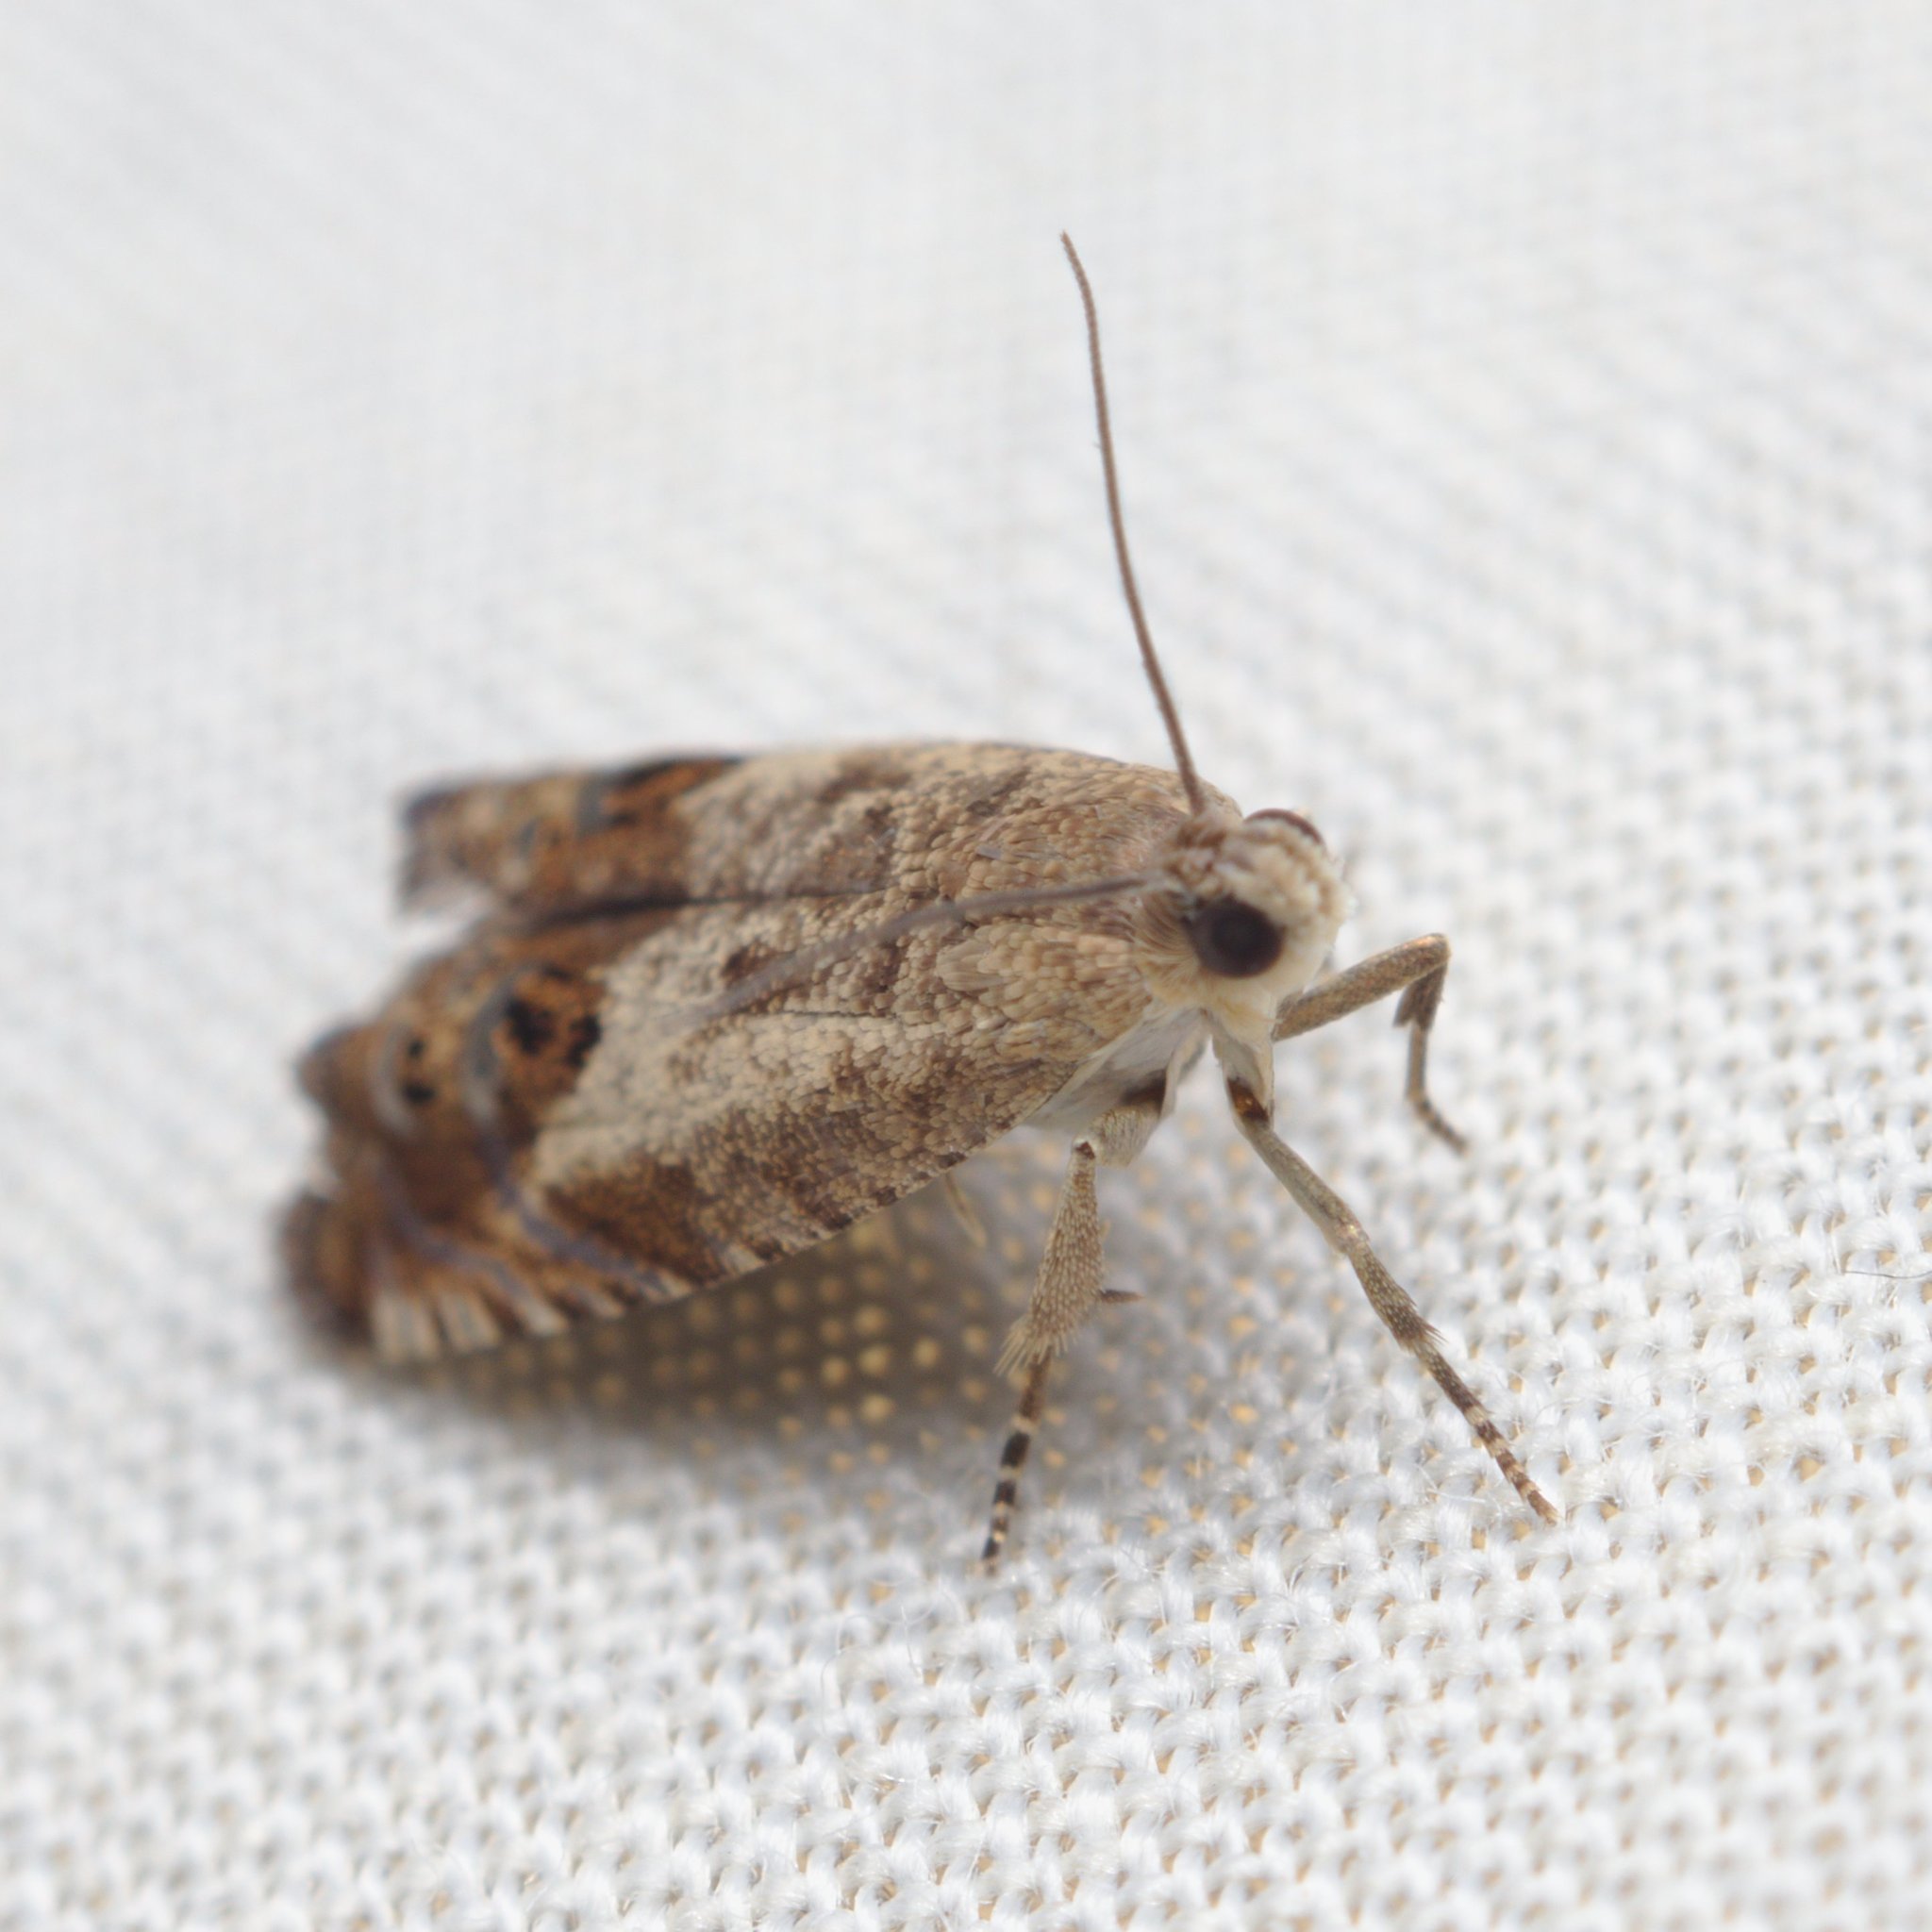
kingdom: Animalia
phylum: Arthropoda
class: Insecta
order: Lepidoptera
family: Tortricidae
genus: Cydia
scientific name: Cydia succedana
